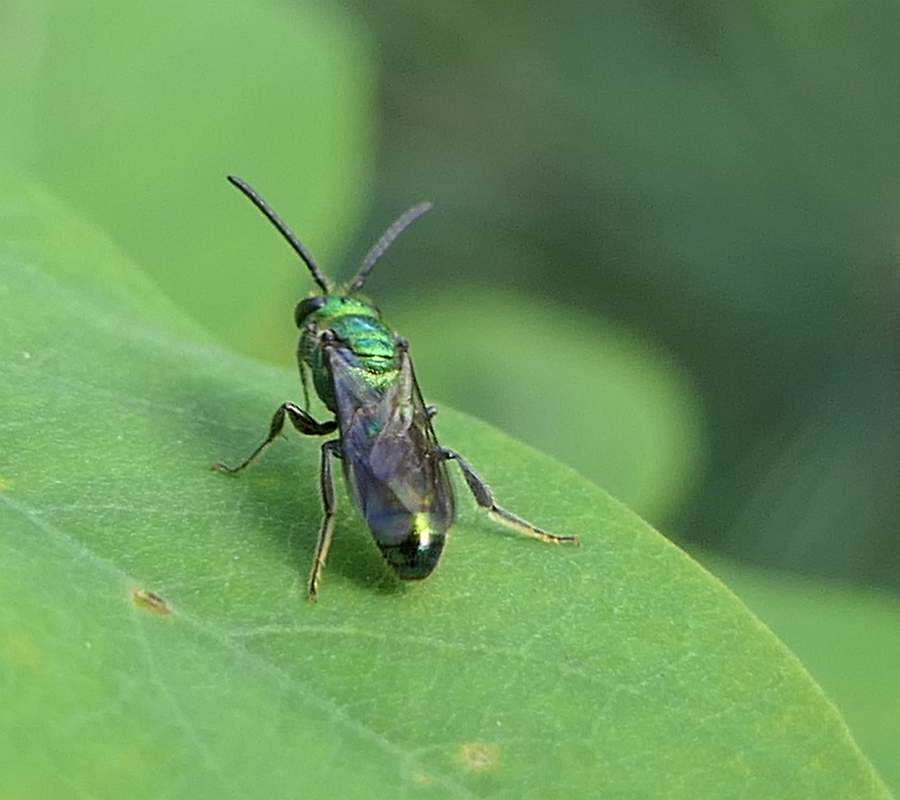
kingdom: Animalia
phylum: Arthropoda
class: Insecta
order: Hymenoptera
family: Halictidae
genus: Augochlora
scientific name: Augochlora pura
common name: Pure green sweat bee
